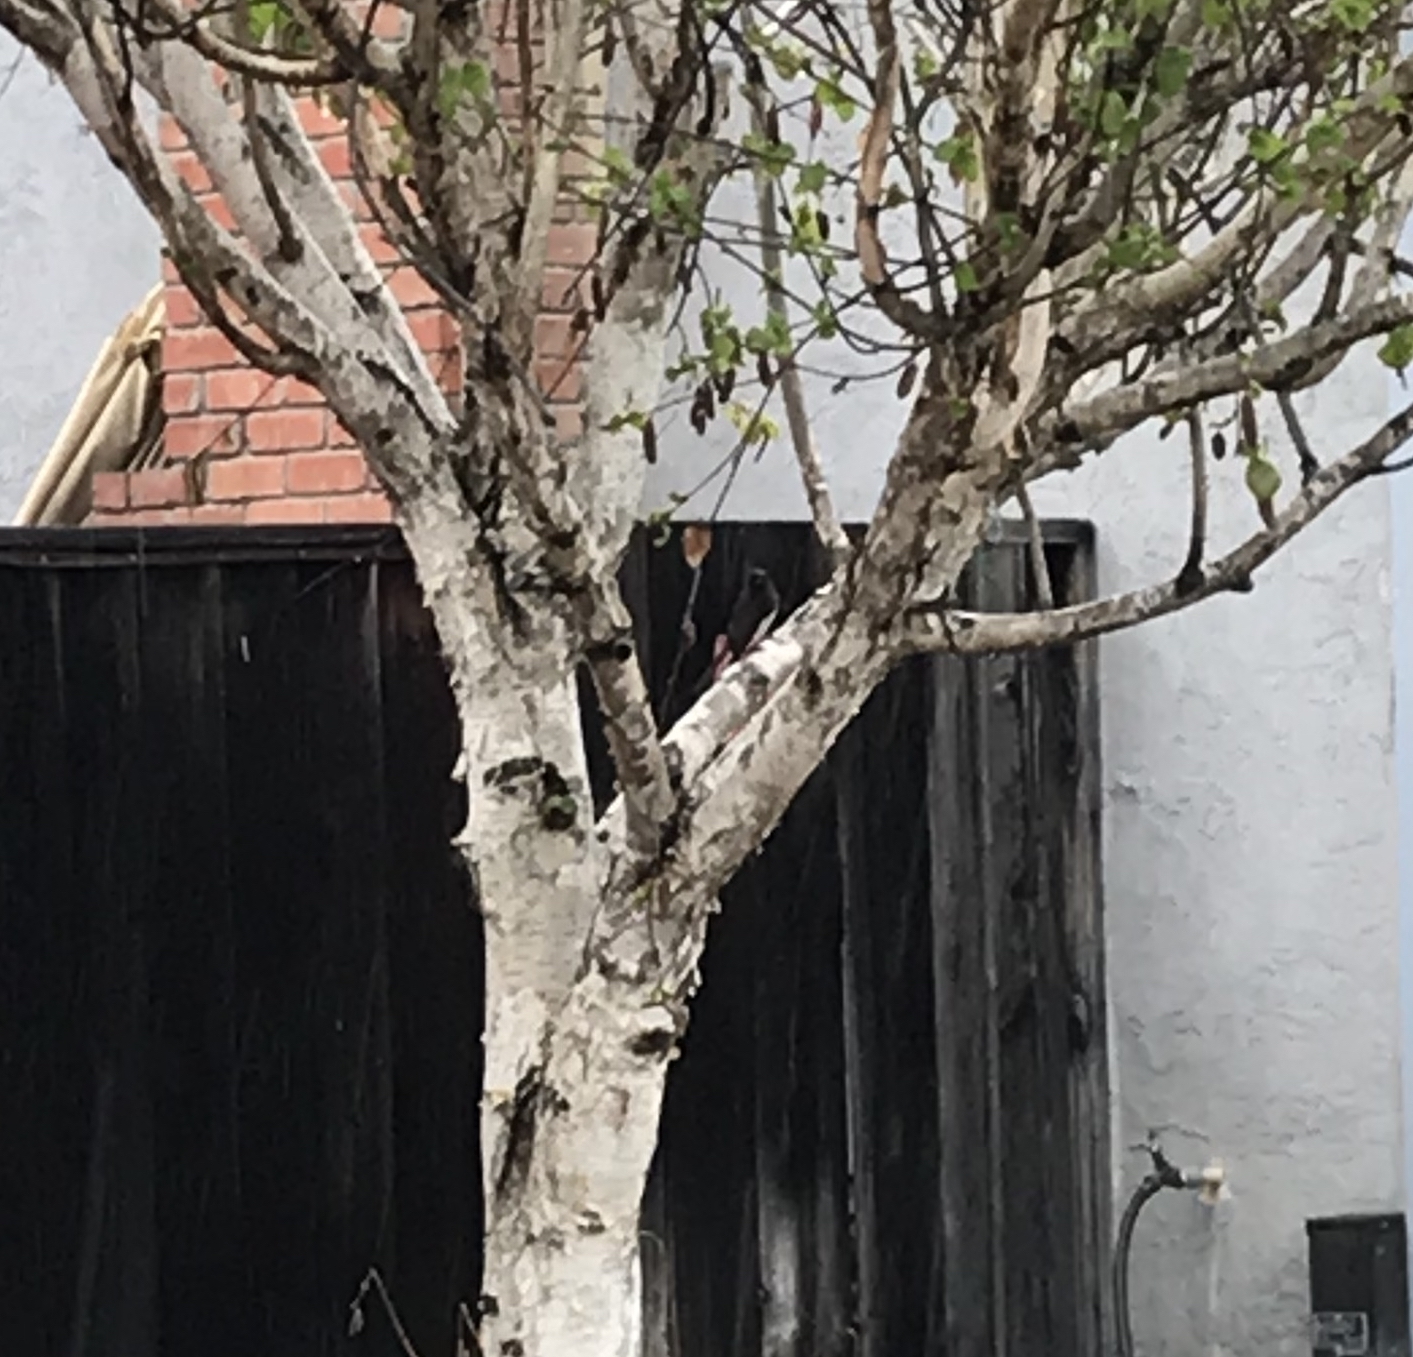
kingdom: Animalia
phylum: Chordata
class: Aves
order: Passeriformes
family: Tyrannidae
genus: Sayornis
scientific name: Sayornis nigricans
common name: Black phoebe
